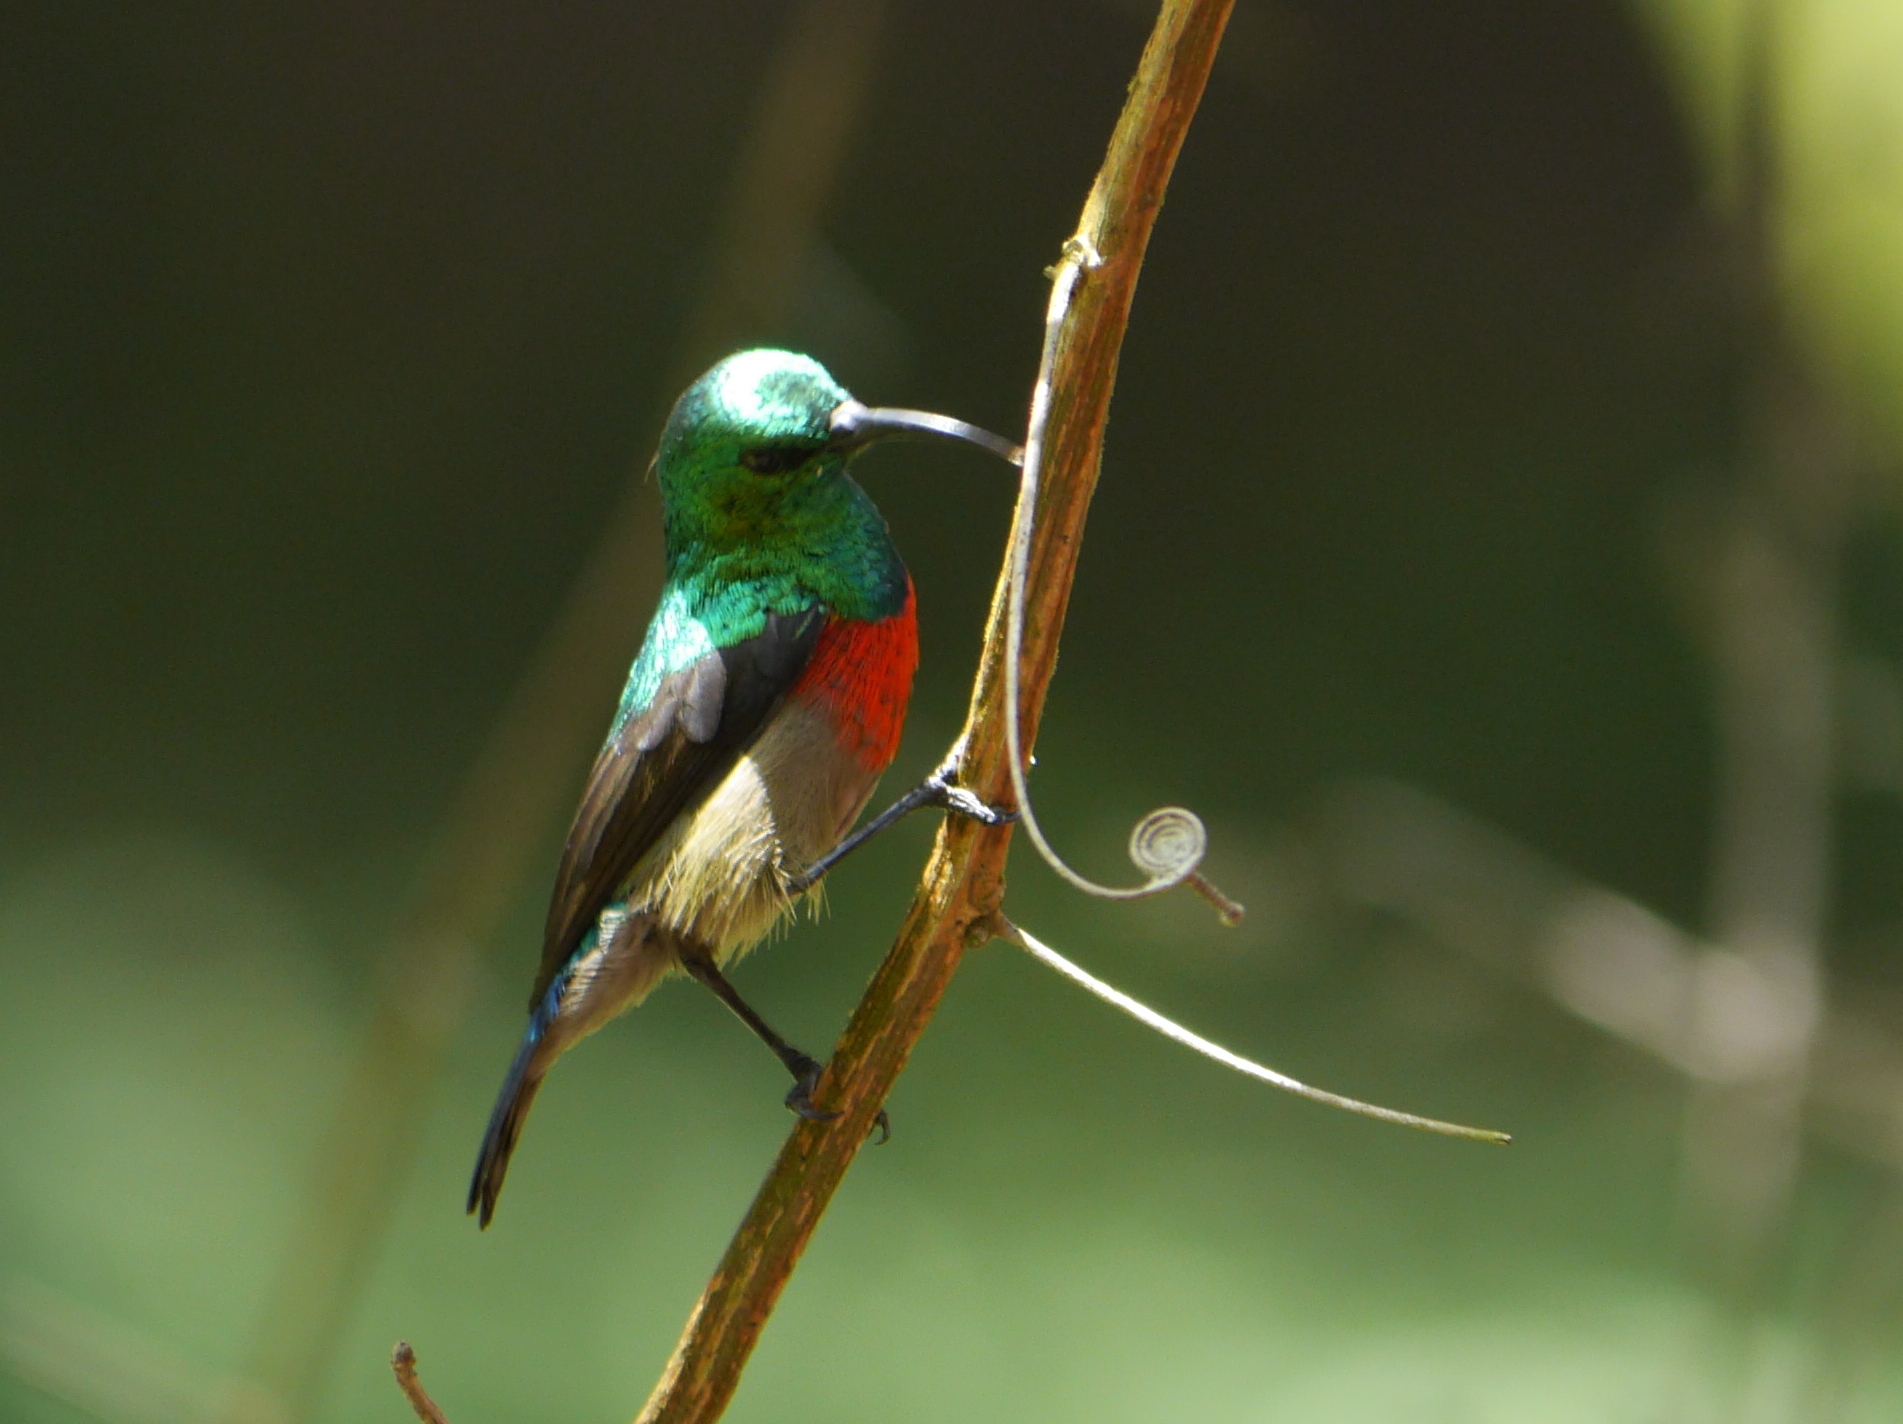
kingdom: Animalia
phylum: Chordata
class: Aves
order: Passeriformes
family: Nectariniidae
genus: Cinnyris
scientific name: Cinnyris chloropygius
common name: Olive-bellied sunbird
